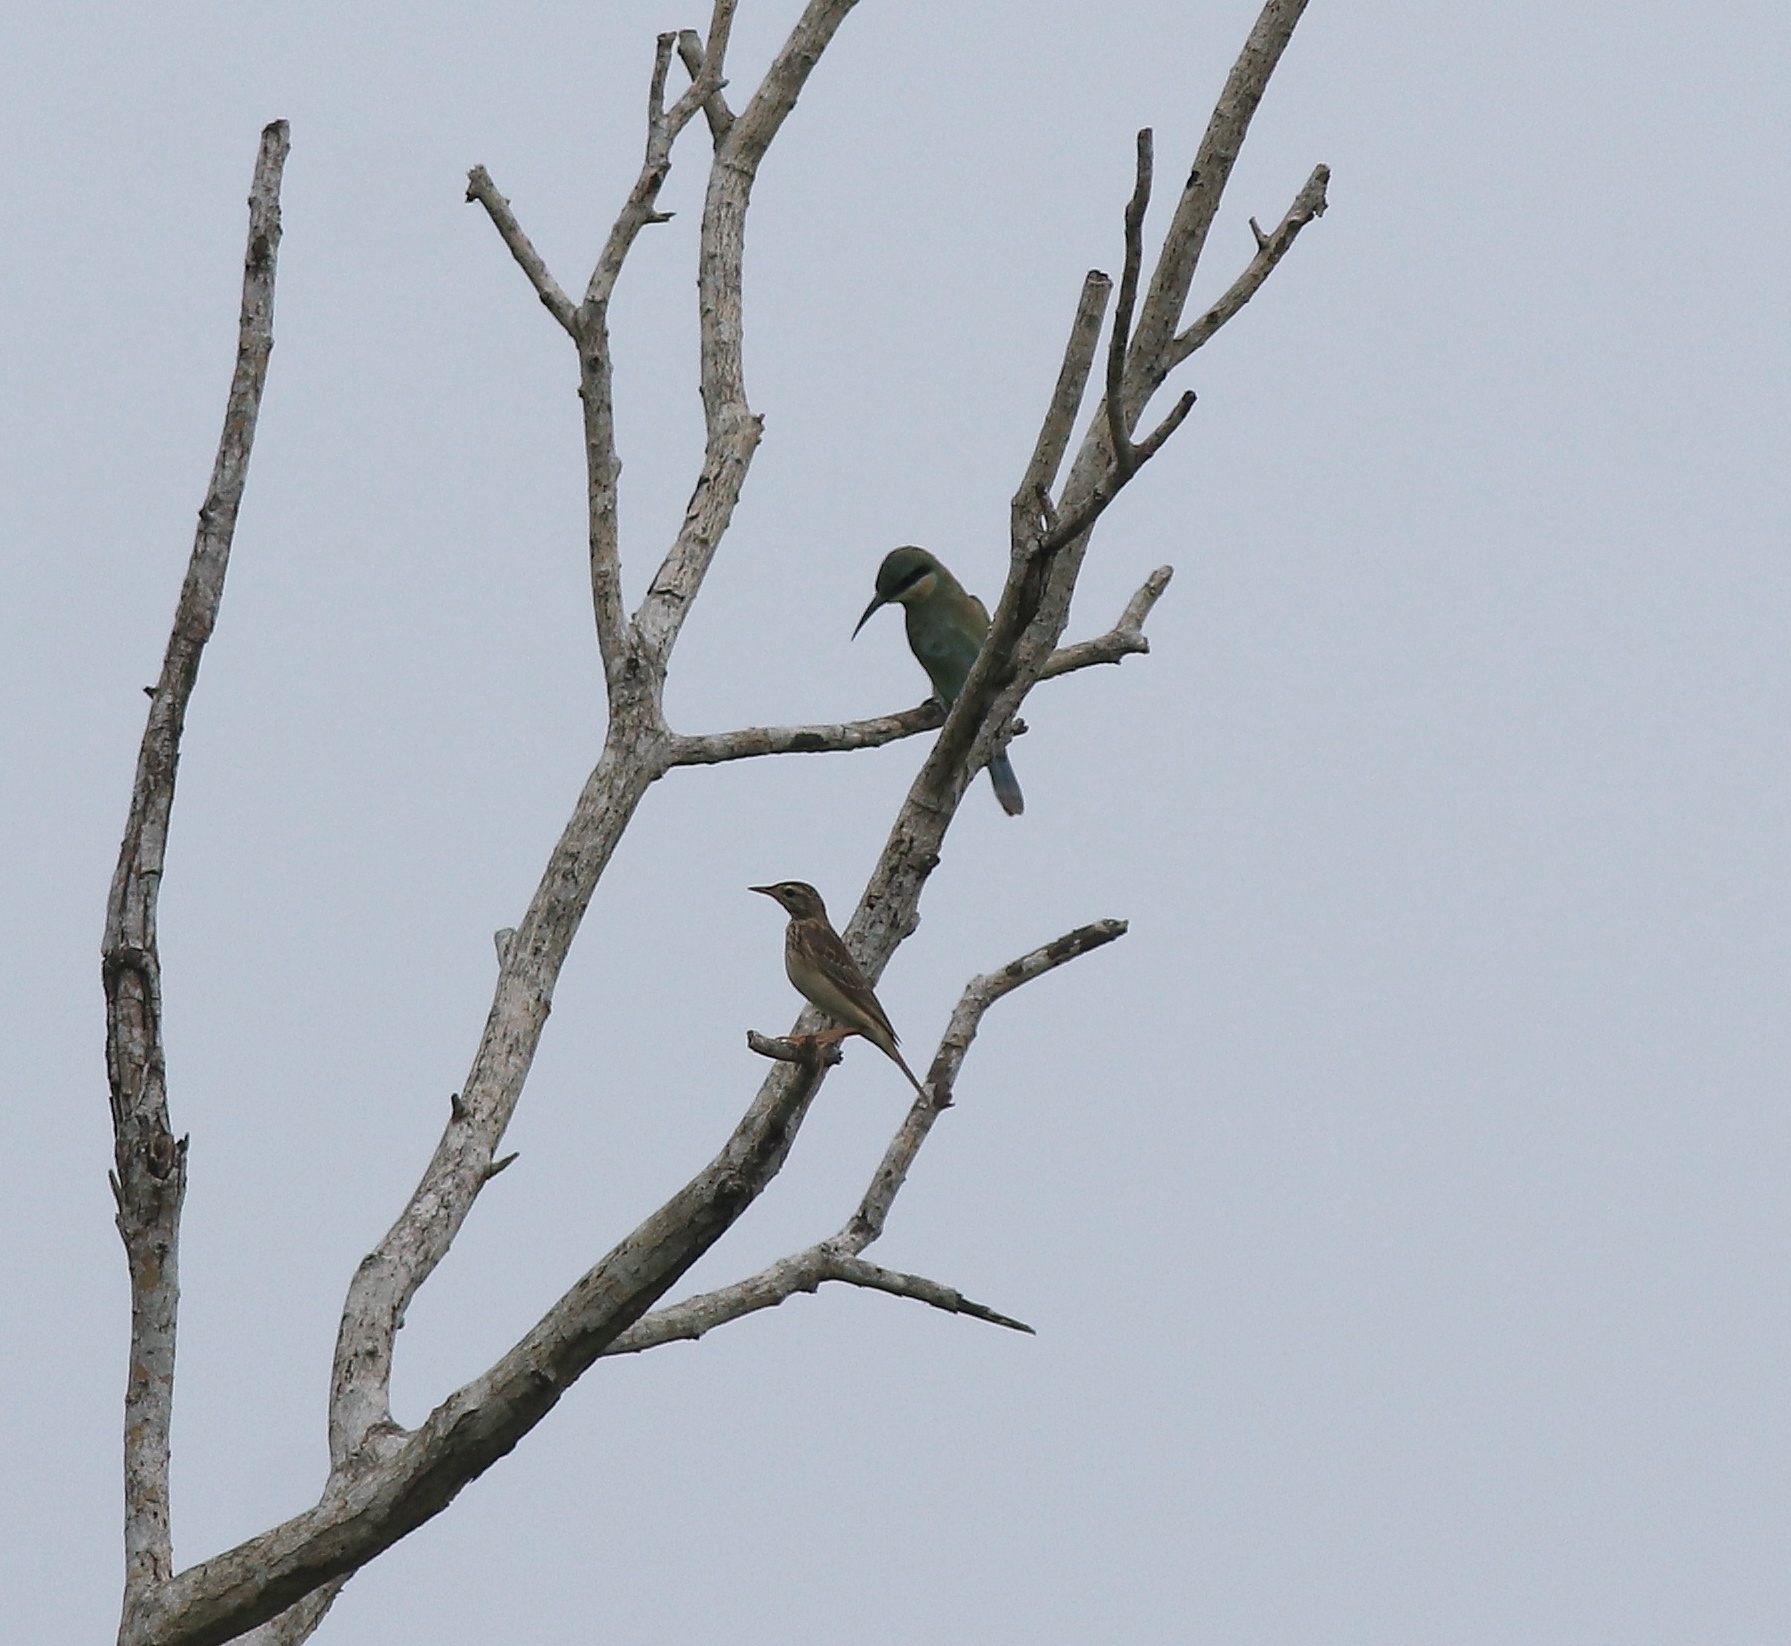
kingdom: Animalia
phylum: Chordata
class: Aves
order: Coraciiformes
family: Meropidae
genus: Merops
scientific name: Merops philippinus
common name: Blue-tailed bee-eater
